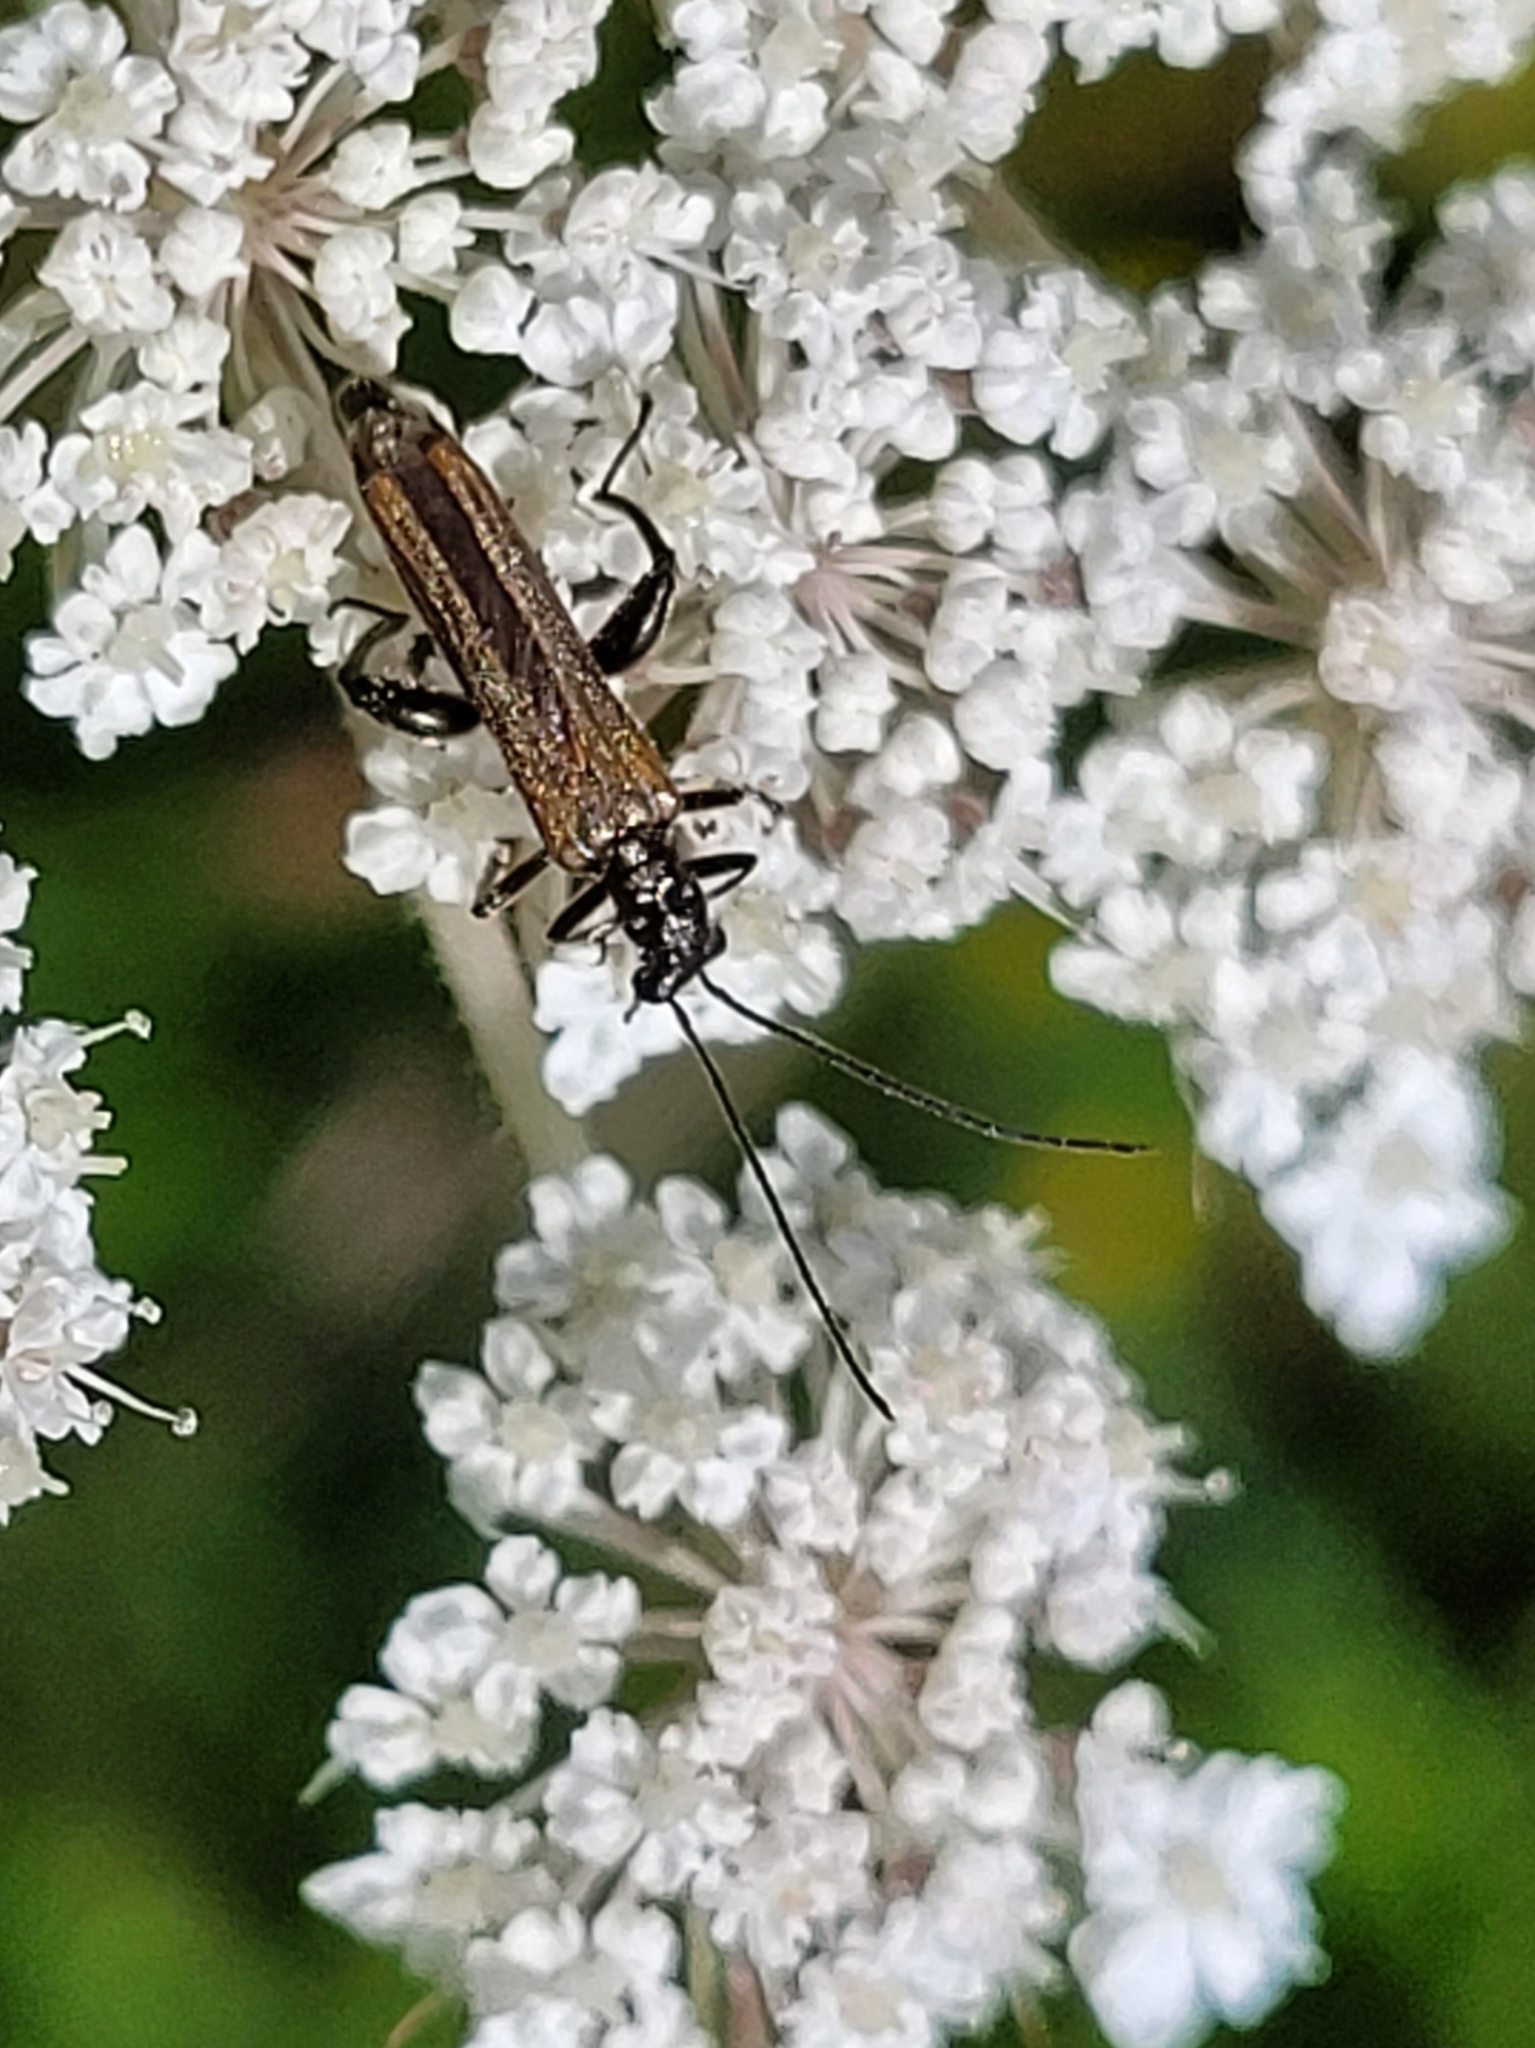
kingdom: Animalia
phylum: Arthropoda
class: Insecta
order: Coleoptera
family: Oedemeridae
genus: Oedemera
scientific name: Oedemera femorata
